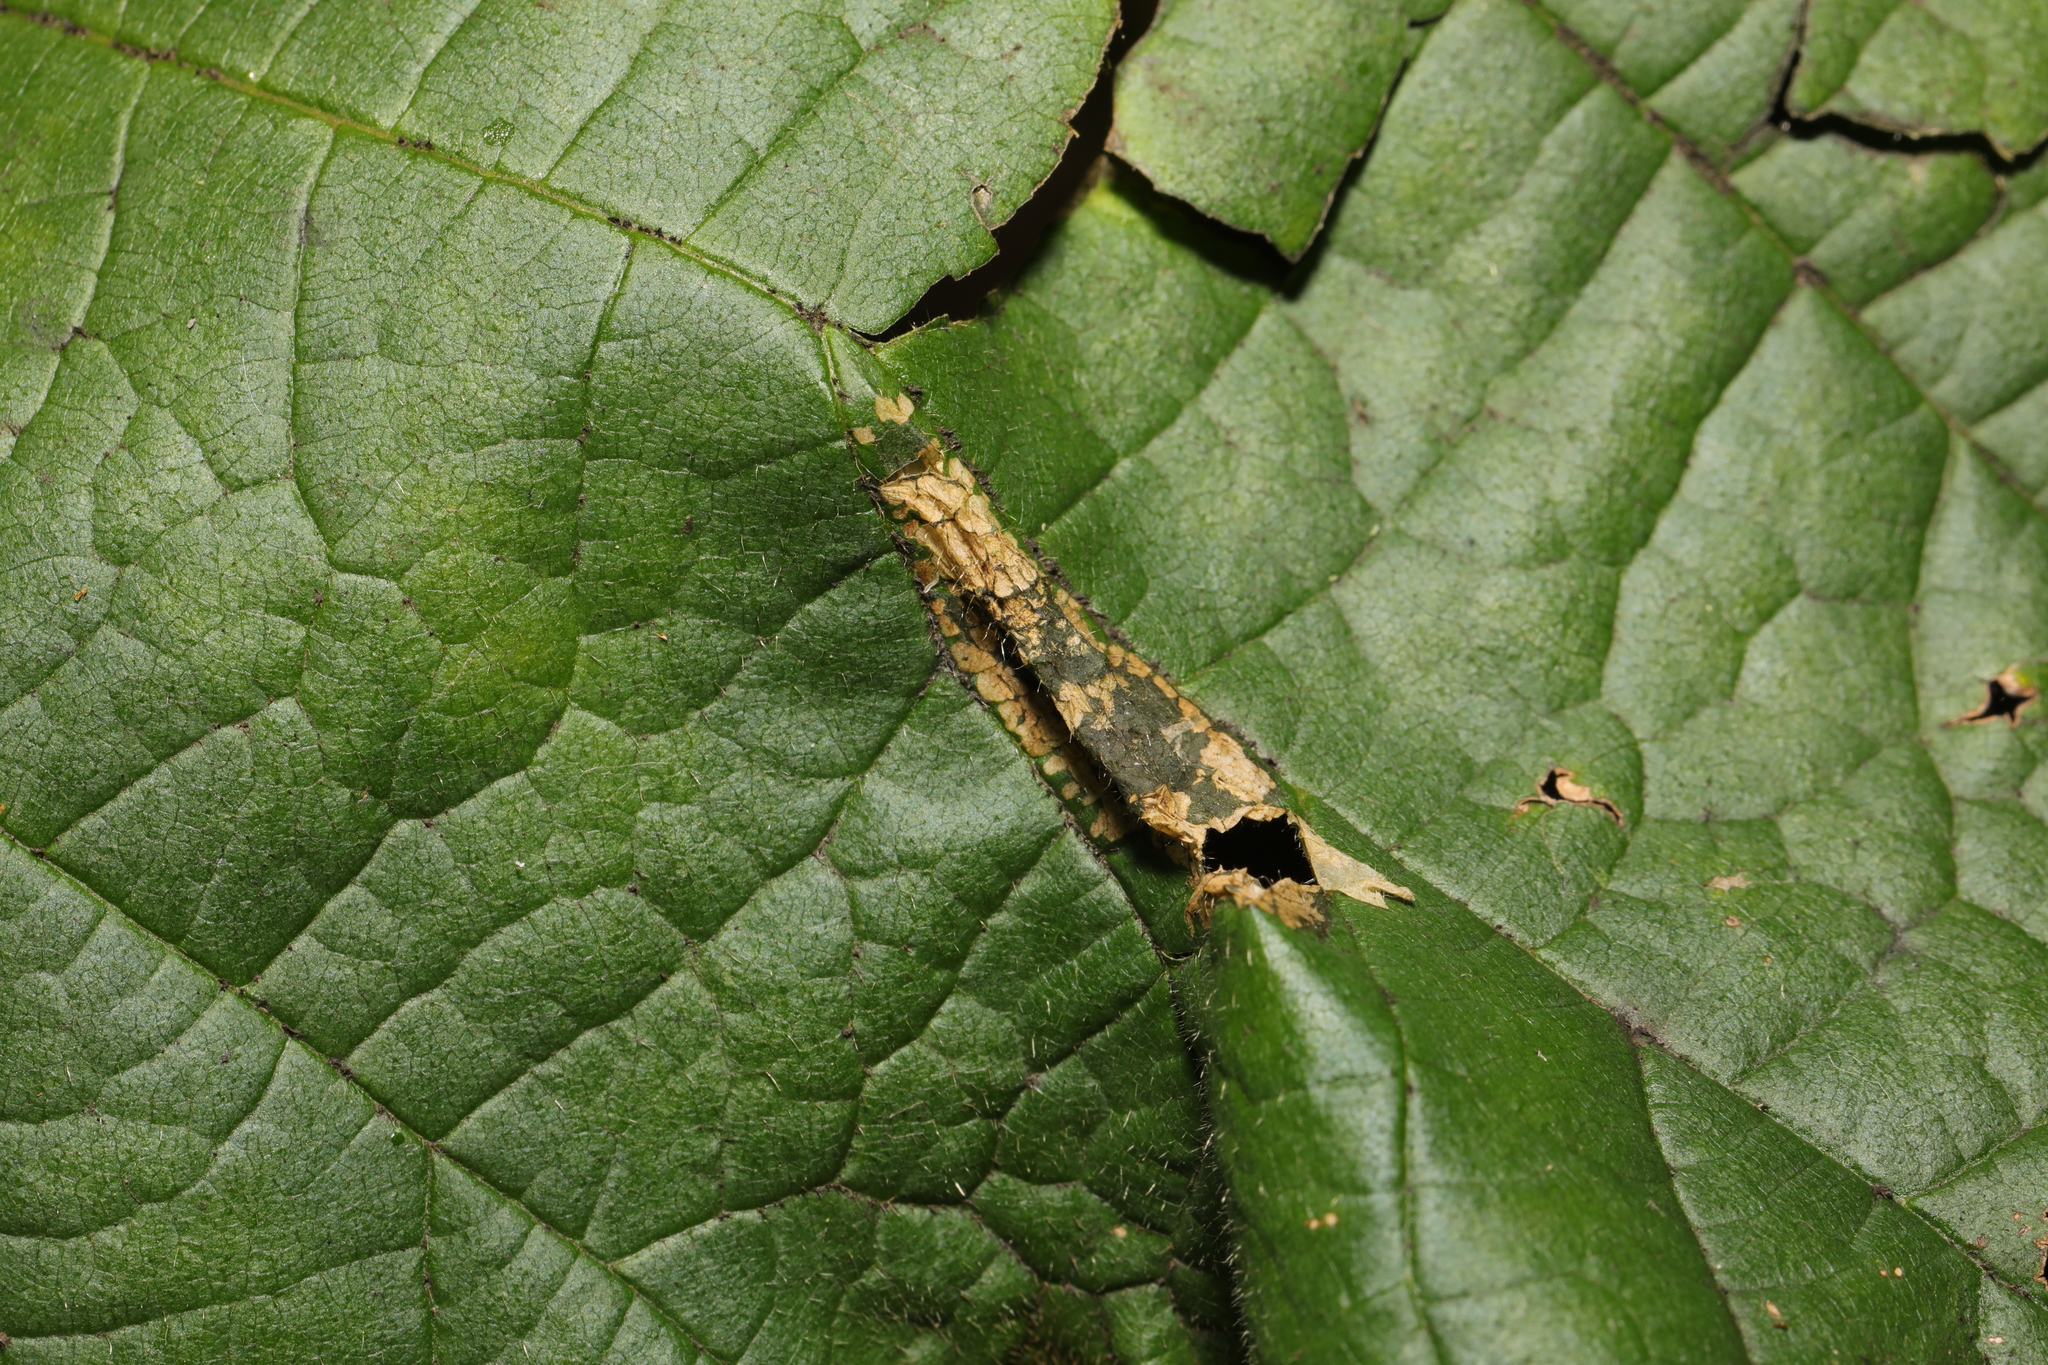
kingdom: Animalia
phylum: Arthropoda
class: Insecta
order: Lepidoptera
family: Gracillariidae
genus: Phyllonorycter
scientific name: Phyllonorycter nicellii
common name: Red hazel midget
